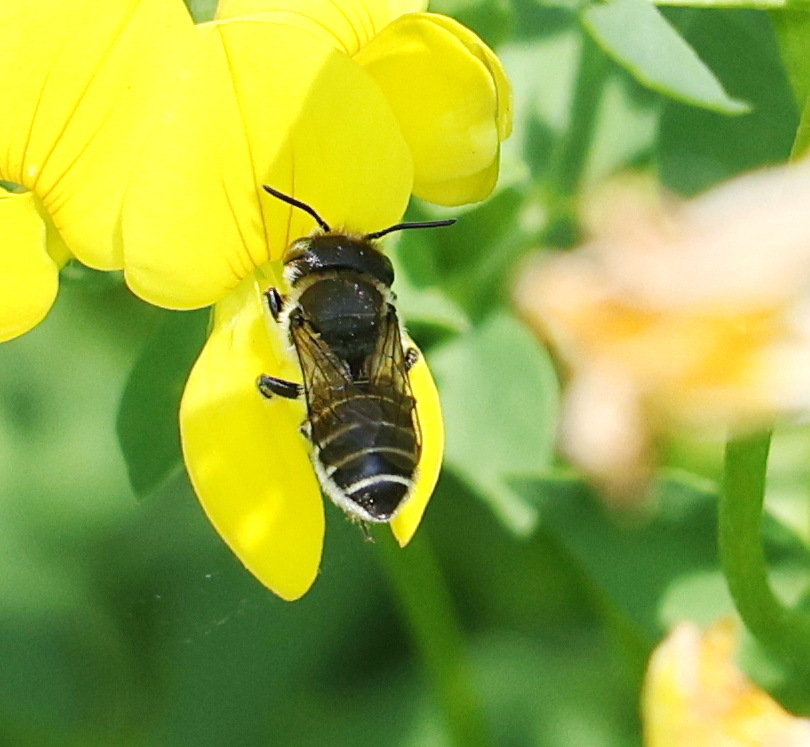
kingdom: Animalia
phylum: Arthropoda
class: Insecta
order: Hymenoptera
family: Megachilidae
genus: Megachile
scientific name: Megachile rotundata
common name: Alfalfa leafcutting bee
